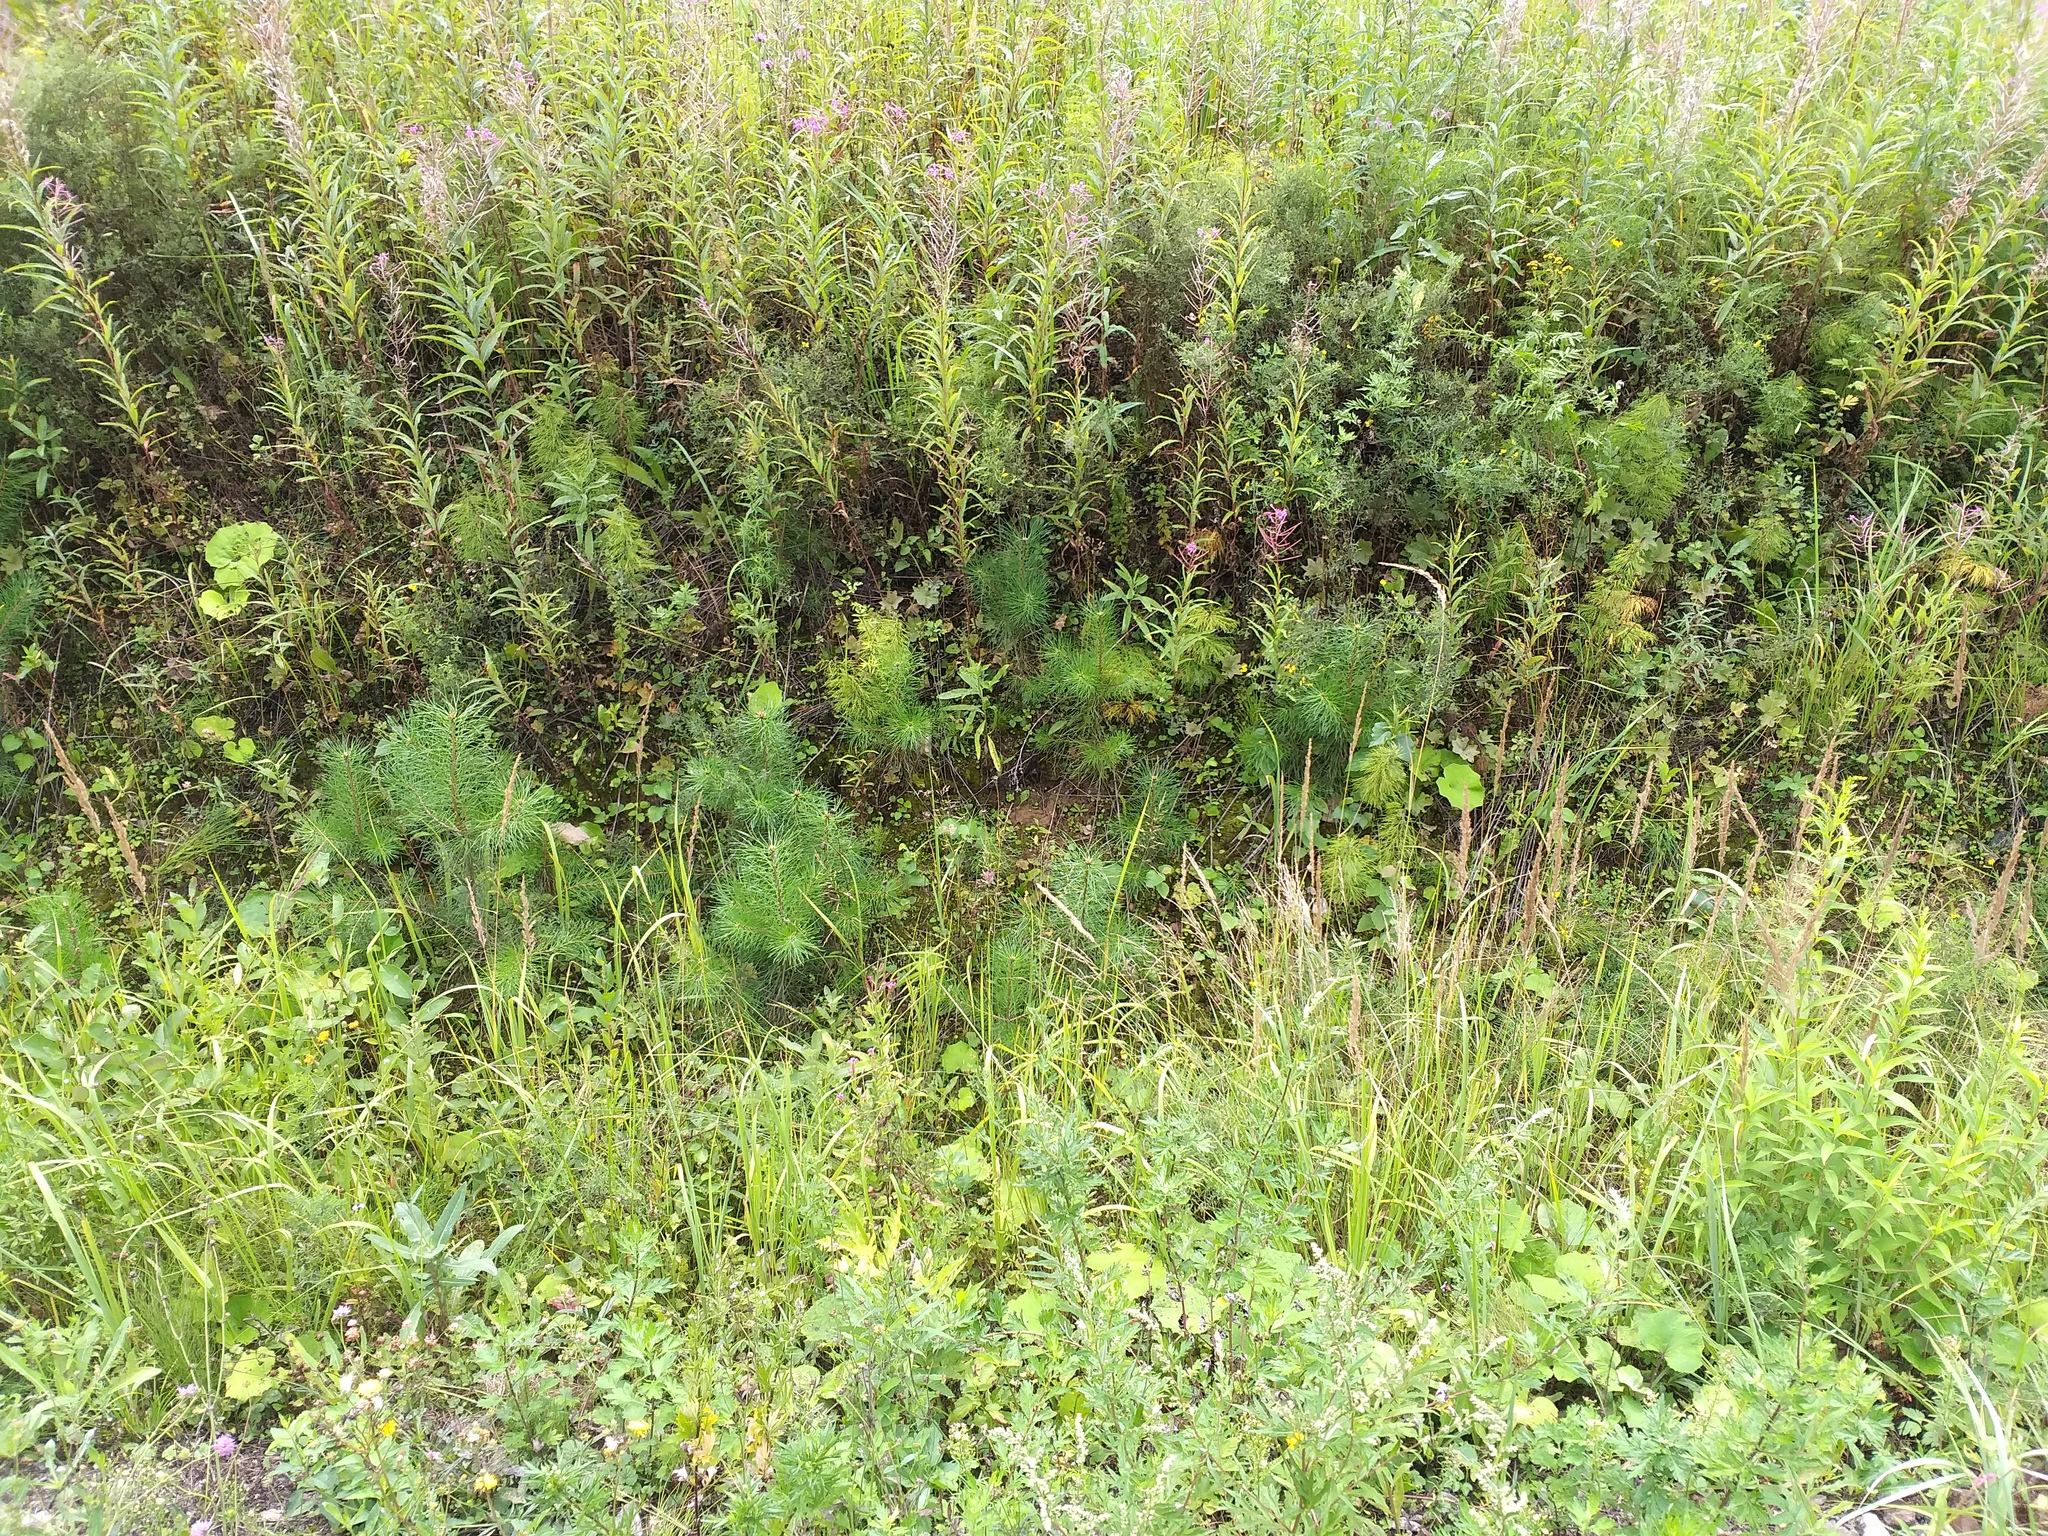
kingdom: Plantae
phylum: Tracheophyta
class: Pinopsida
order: Pinales
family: Pinaceae
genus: Pinus
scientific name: Pinus sylvestris
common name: Scots pine
